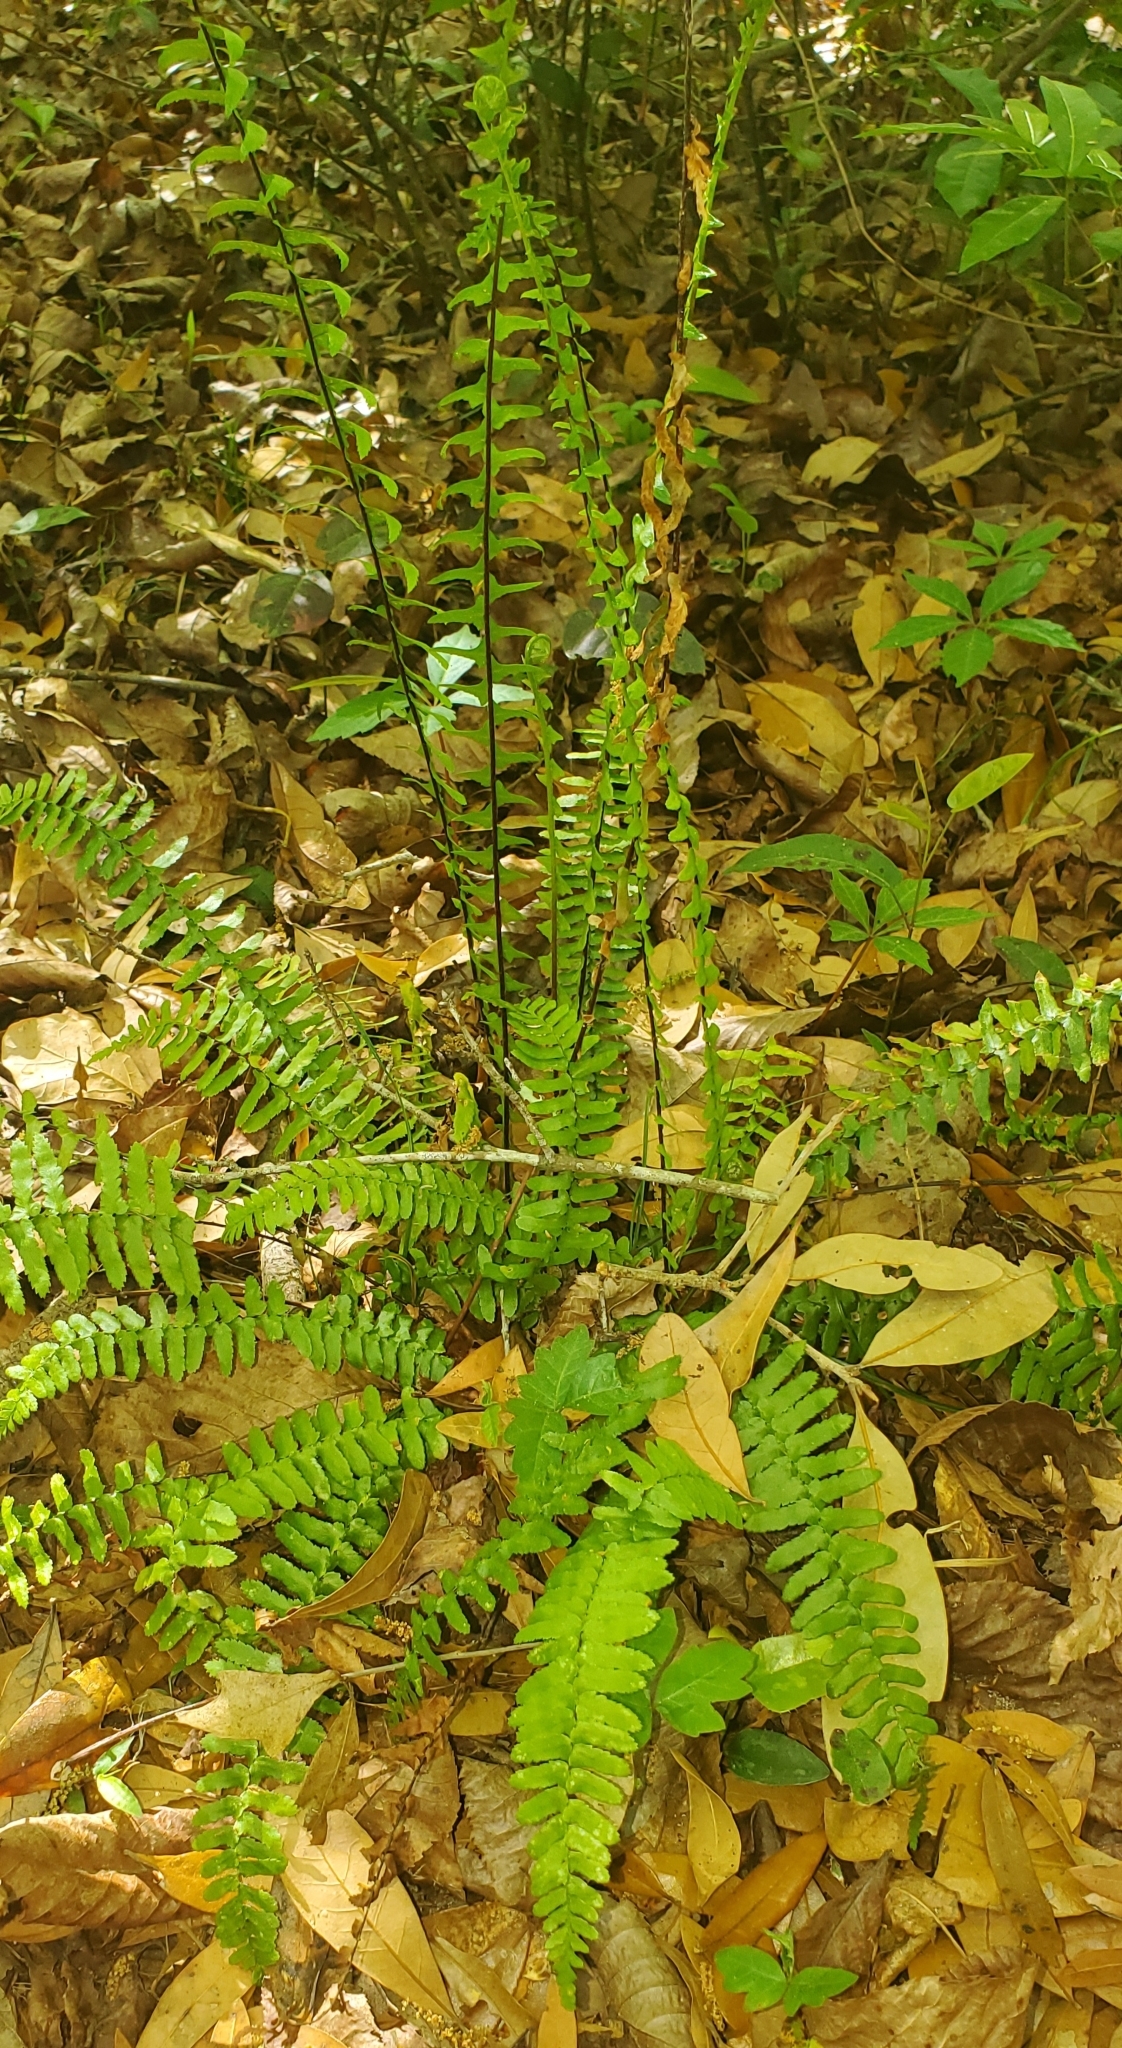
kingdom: Plantae
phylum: Tracheophyta
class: Polypodiopsida
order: Polypodiales
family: Aspleniaceae
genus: Asplenium
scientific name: Asplenium platyneuron
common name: Ebony spleenwort
